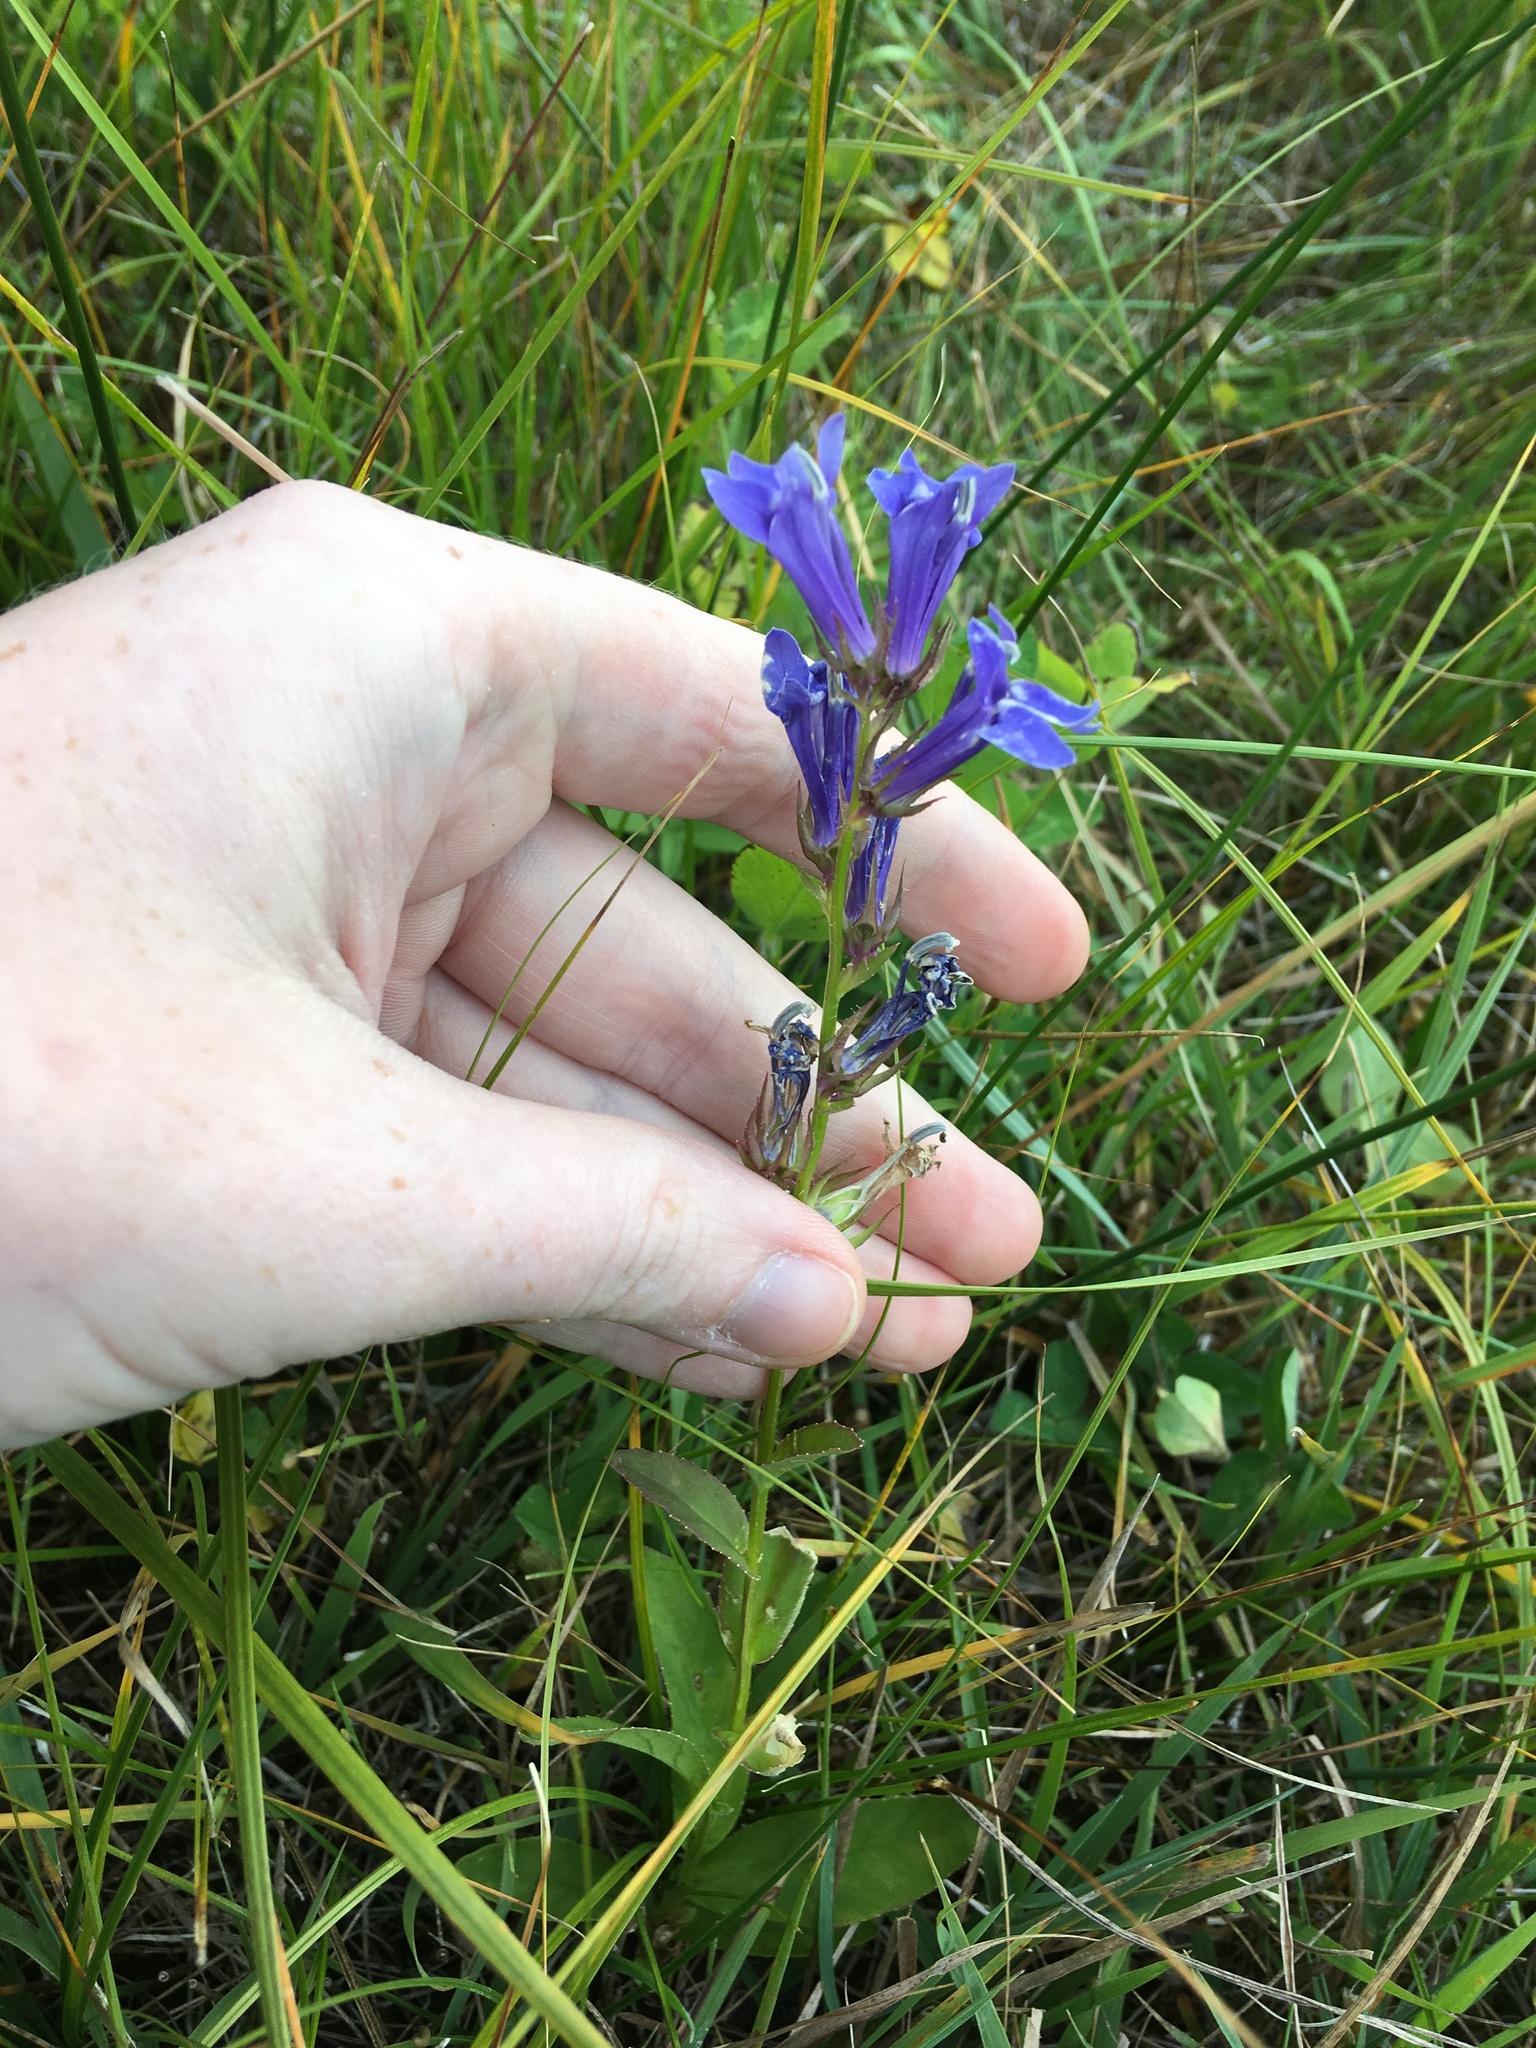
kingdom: Plantae
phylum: Tracheophyta
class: Magnoliopsida
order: Asterales
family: Campanulaceae
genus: Lobelia
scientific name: Lobelia siphilitica
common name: Great lobelia
